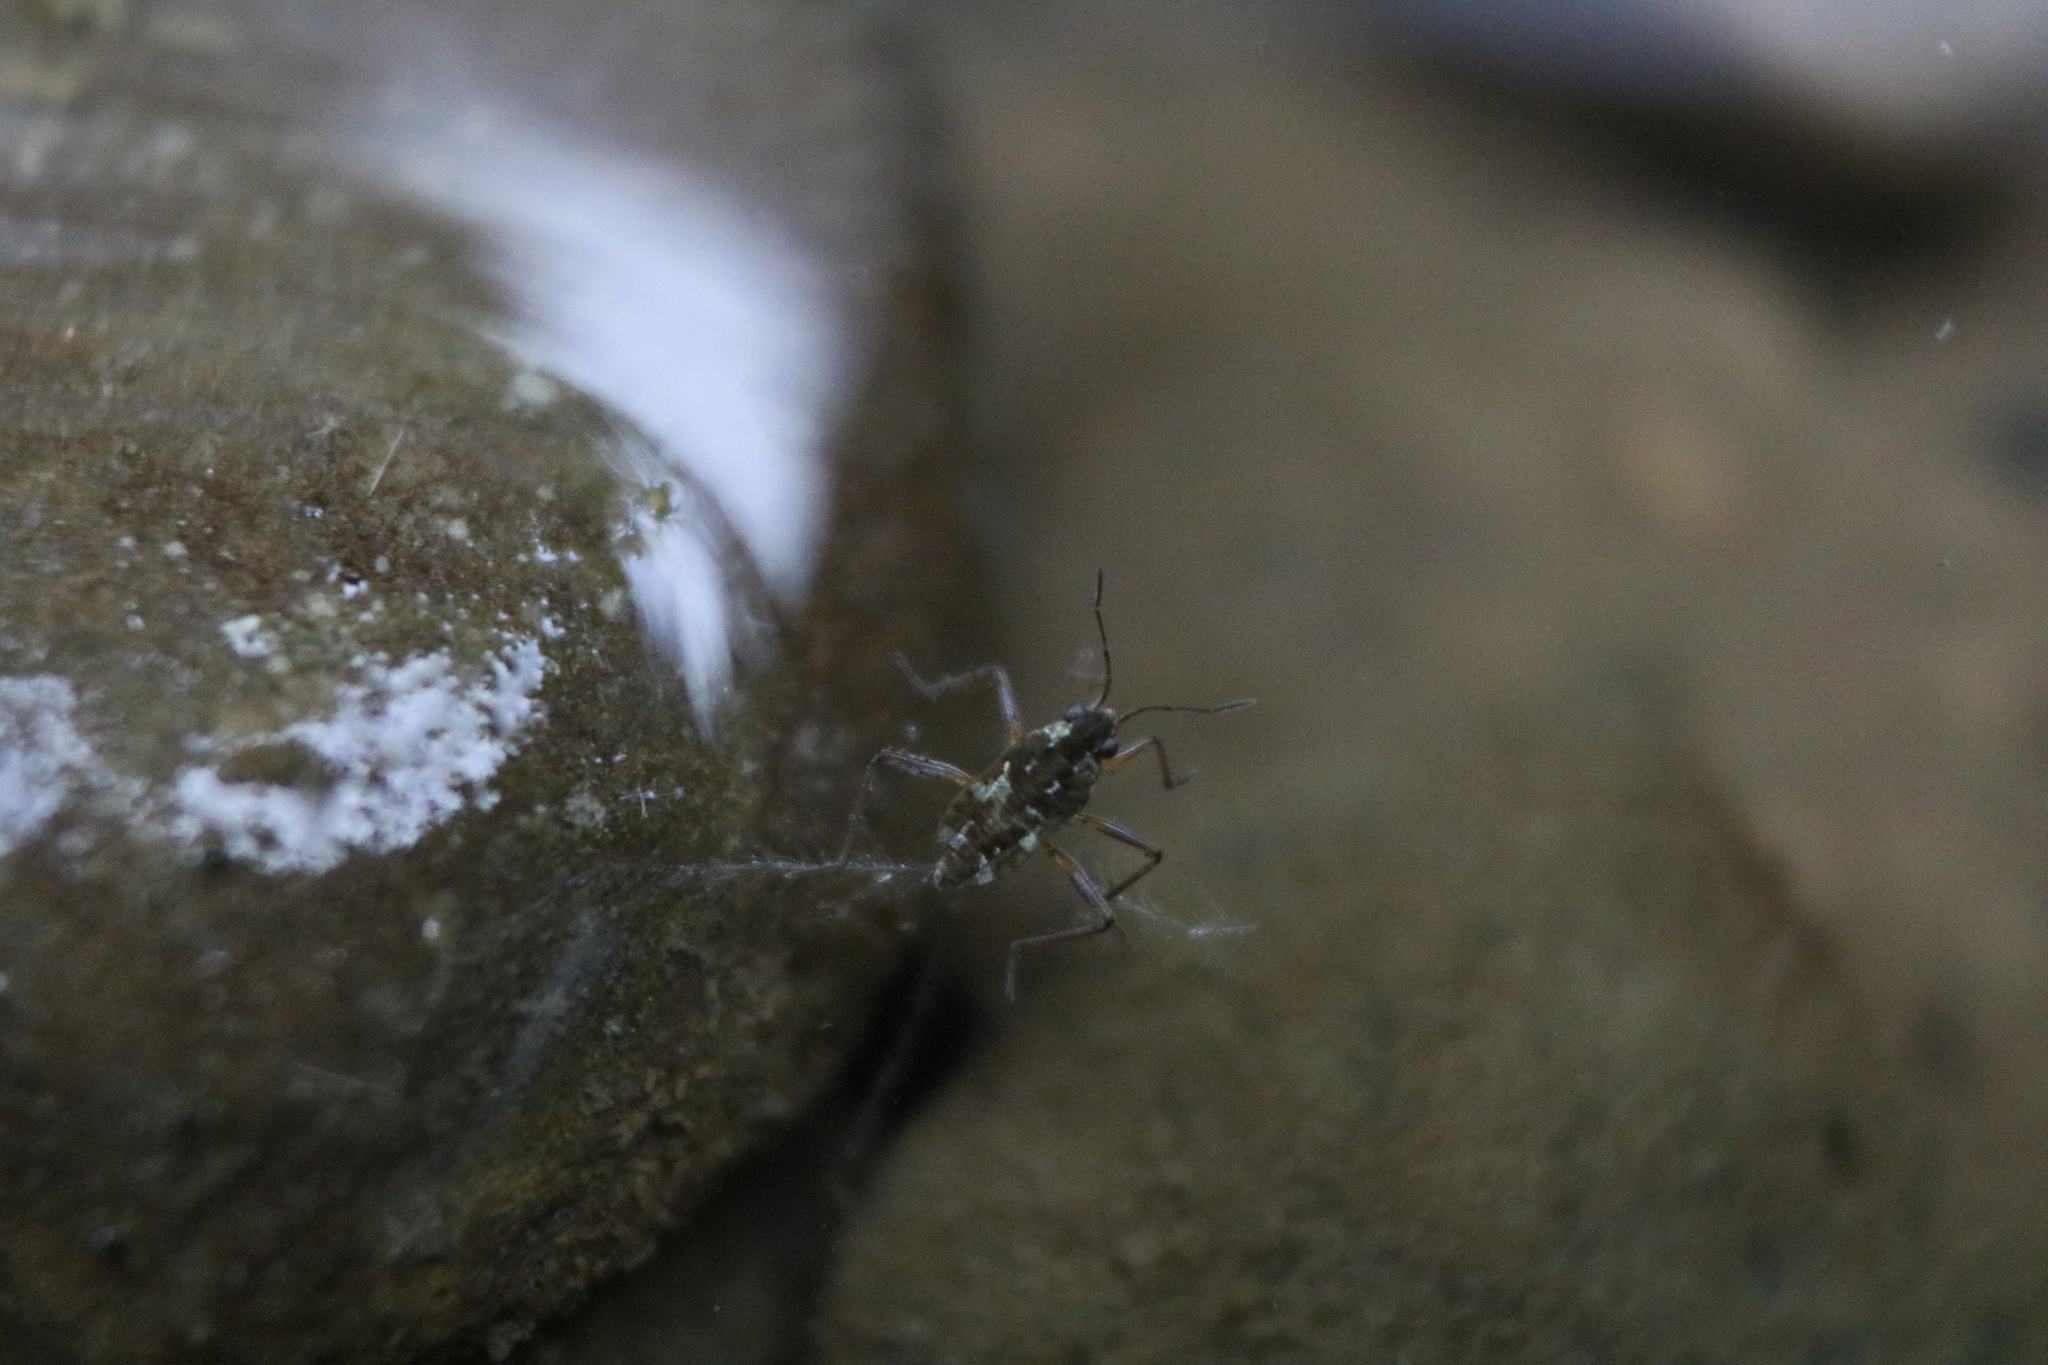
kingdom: Animalia
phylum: Arthropoda
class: Insecta
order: Hemiptera
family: Veliidae
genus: Microvelia
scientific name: Microvelia americana
